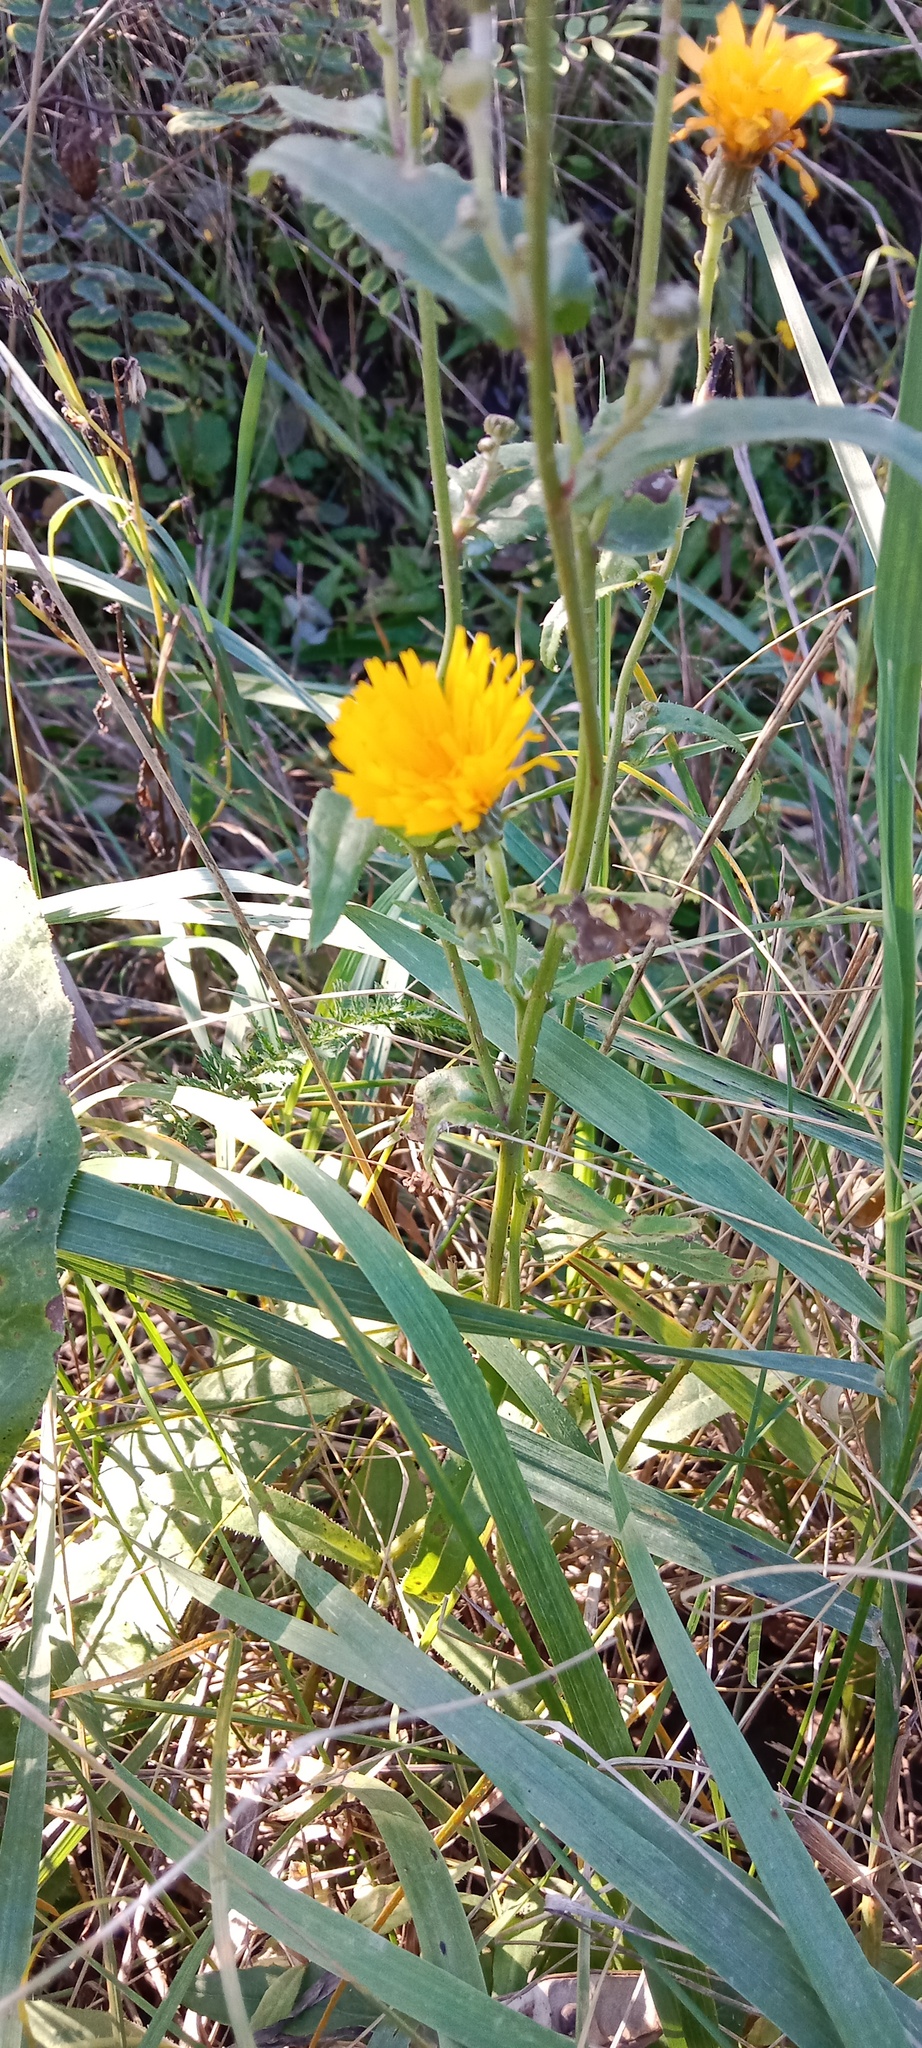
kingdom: Plantae
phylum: Tracheophyta
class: Magnoliopsida
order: Asterales
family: Asteraceae
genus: Picris
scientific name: Picris hieracioides
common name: Hawkweed oxtongue
